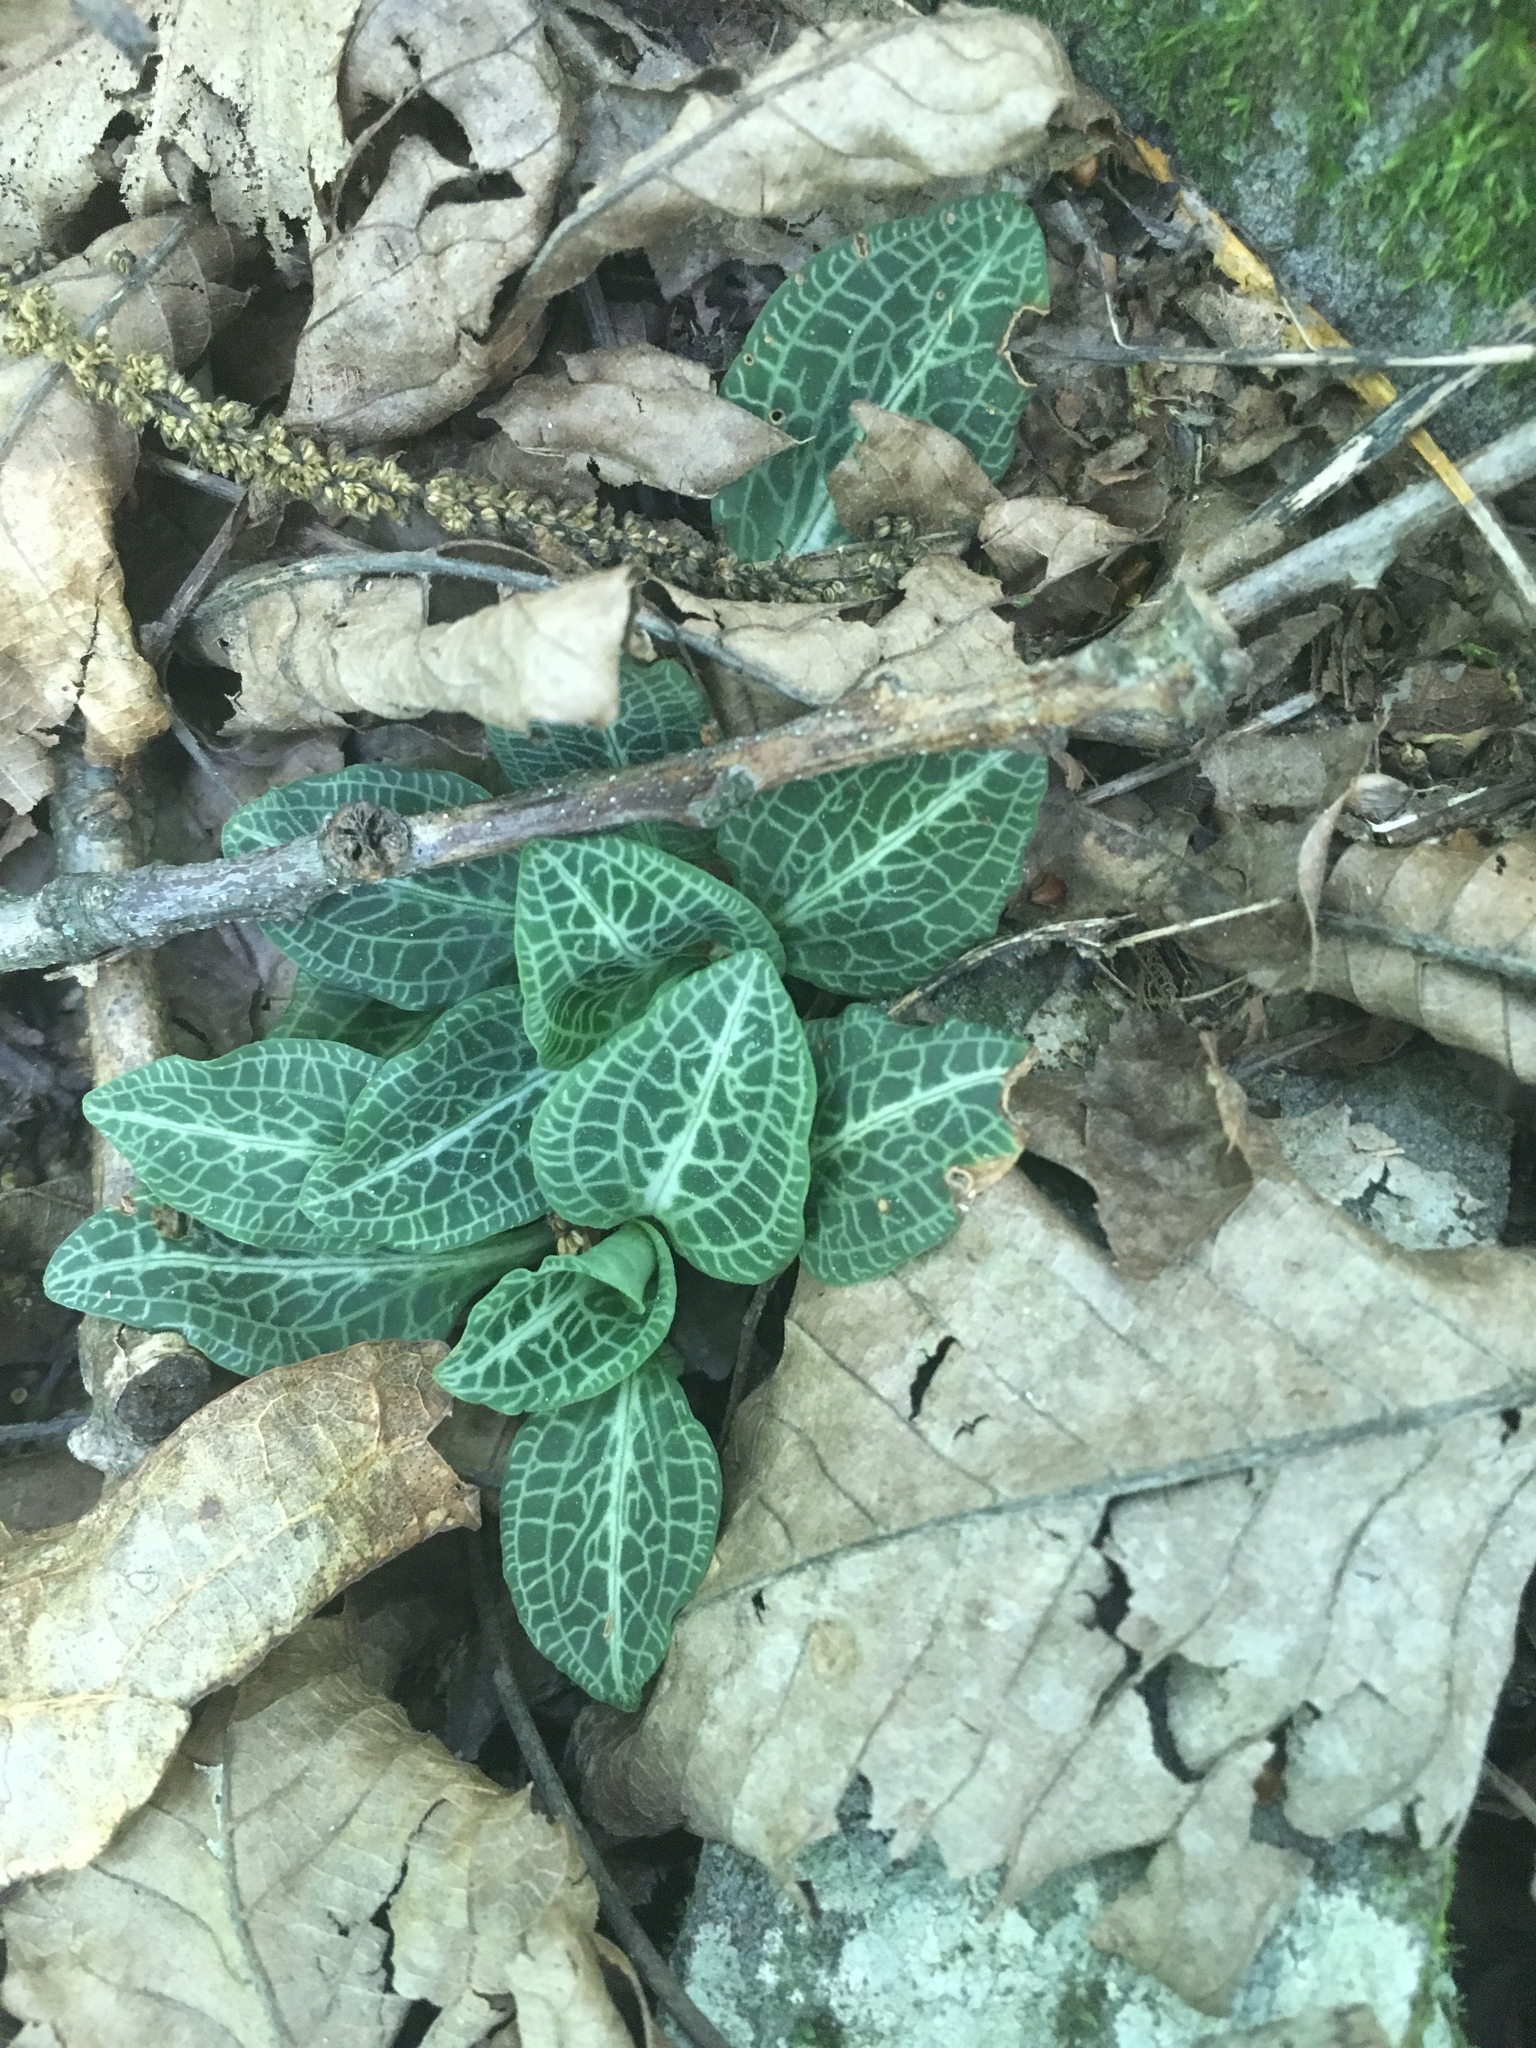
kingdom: Plantae
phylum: Tracheophyta
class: Liliopsida
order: Asparagales
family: Orchidaceae
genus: Goodyera
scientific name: Goodyera pubescens
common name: Downy rattlesnake-plantain
